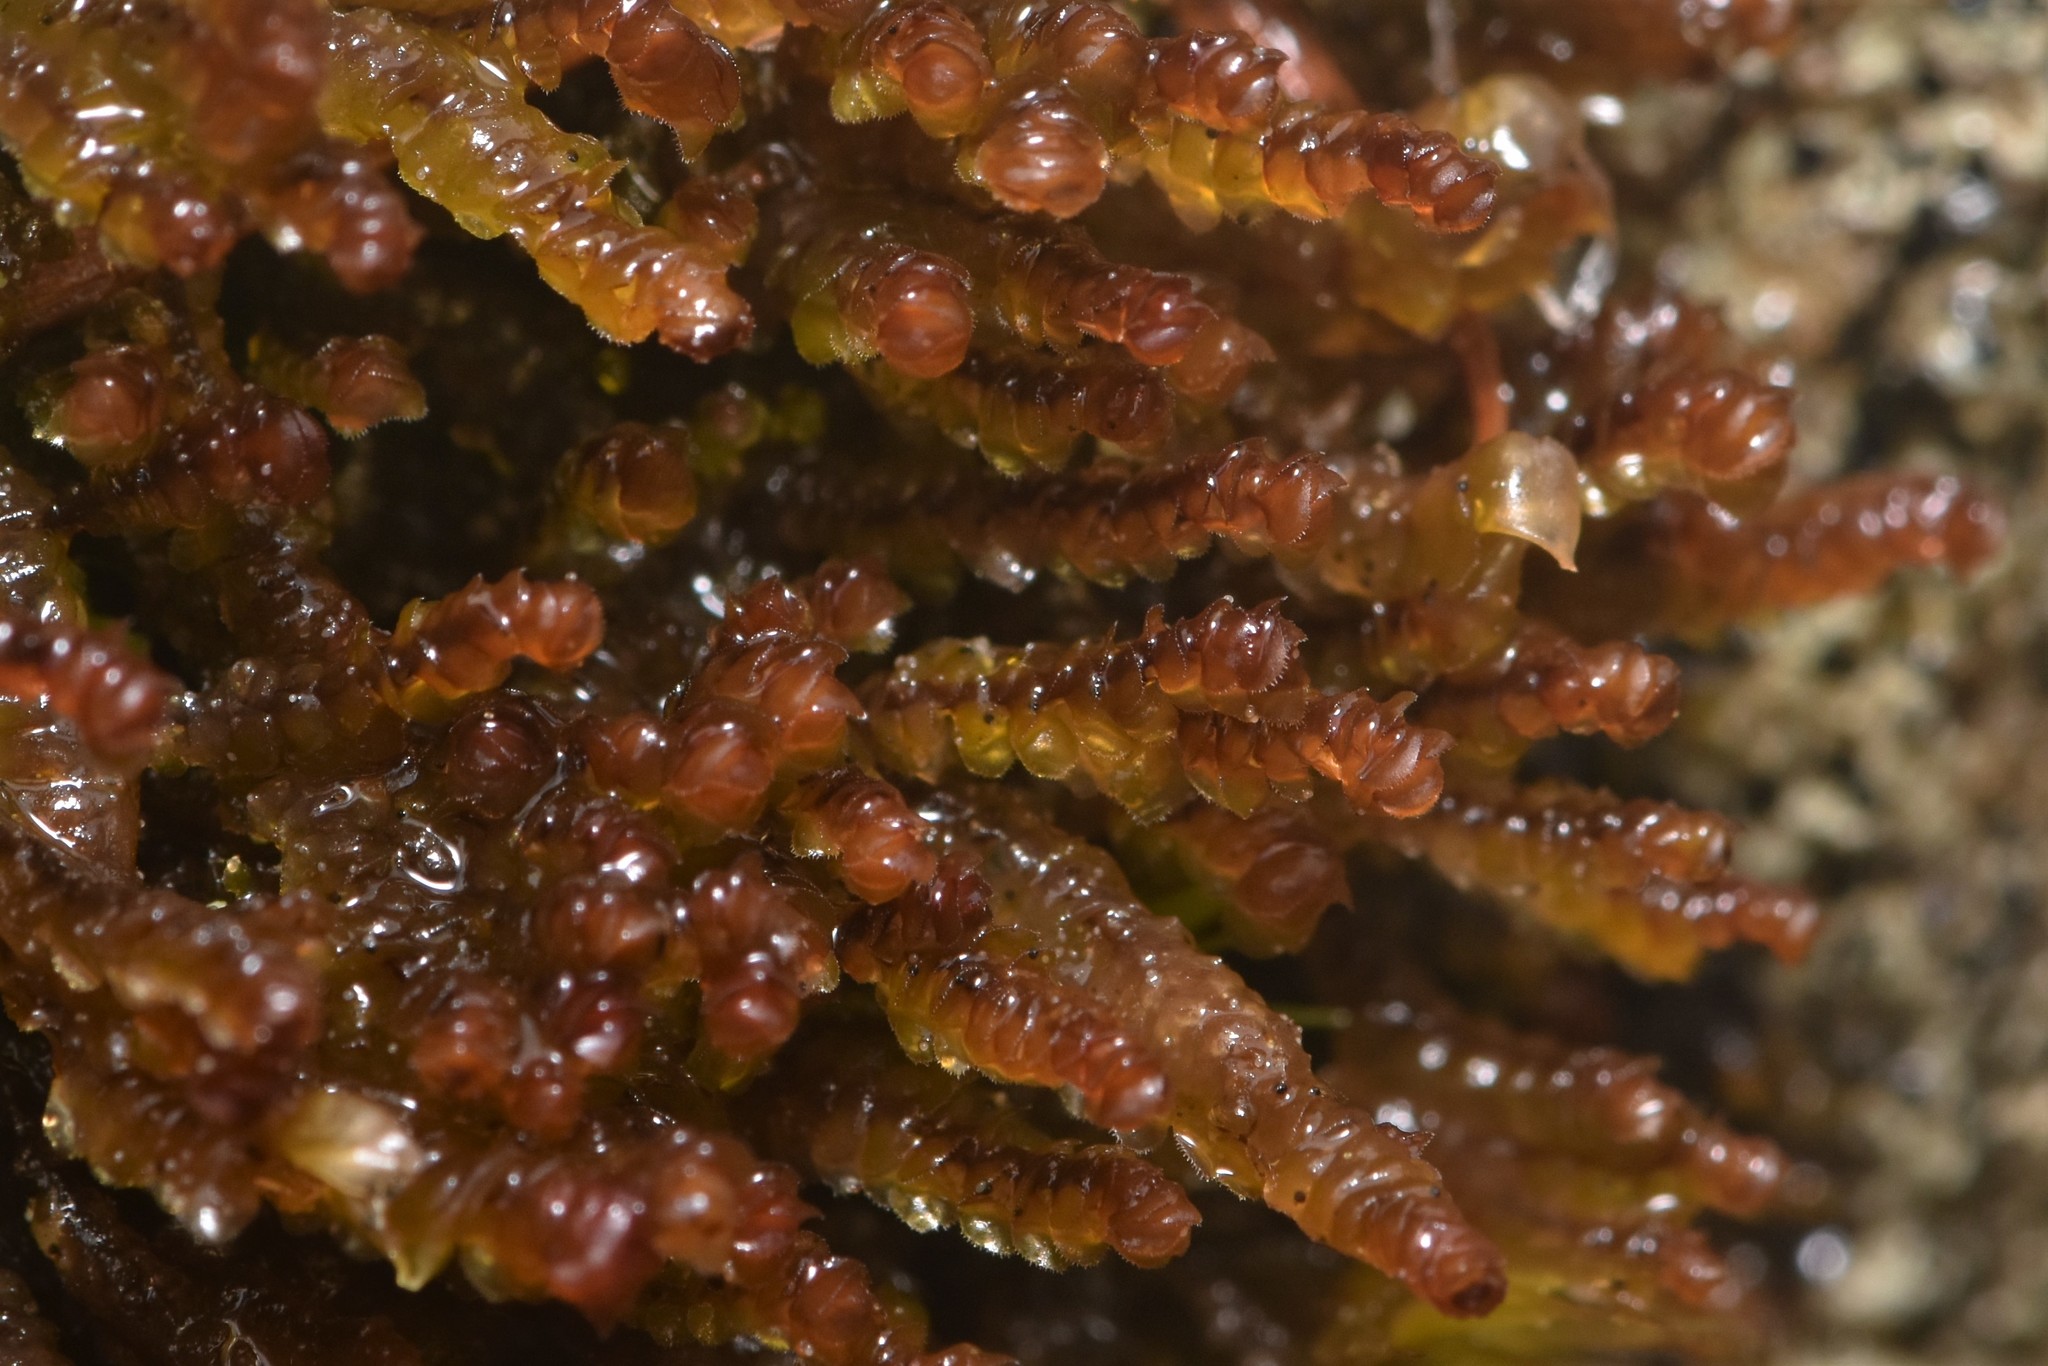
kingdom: Plantae
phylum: Marchantiophyta
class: Jungermanniopsida
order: Jungermanniales
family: Scapaniaceae
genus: Scapania
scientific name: Scapania americana
